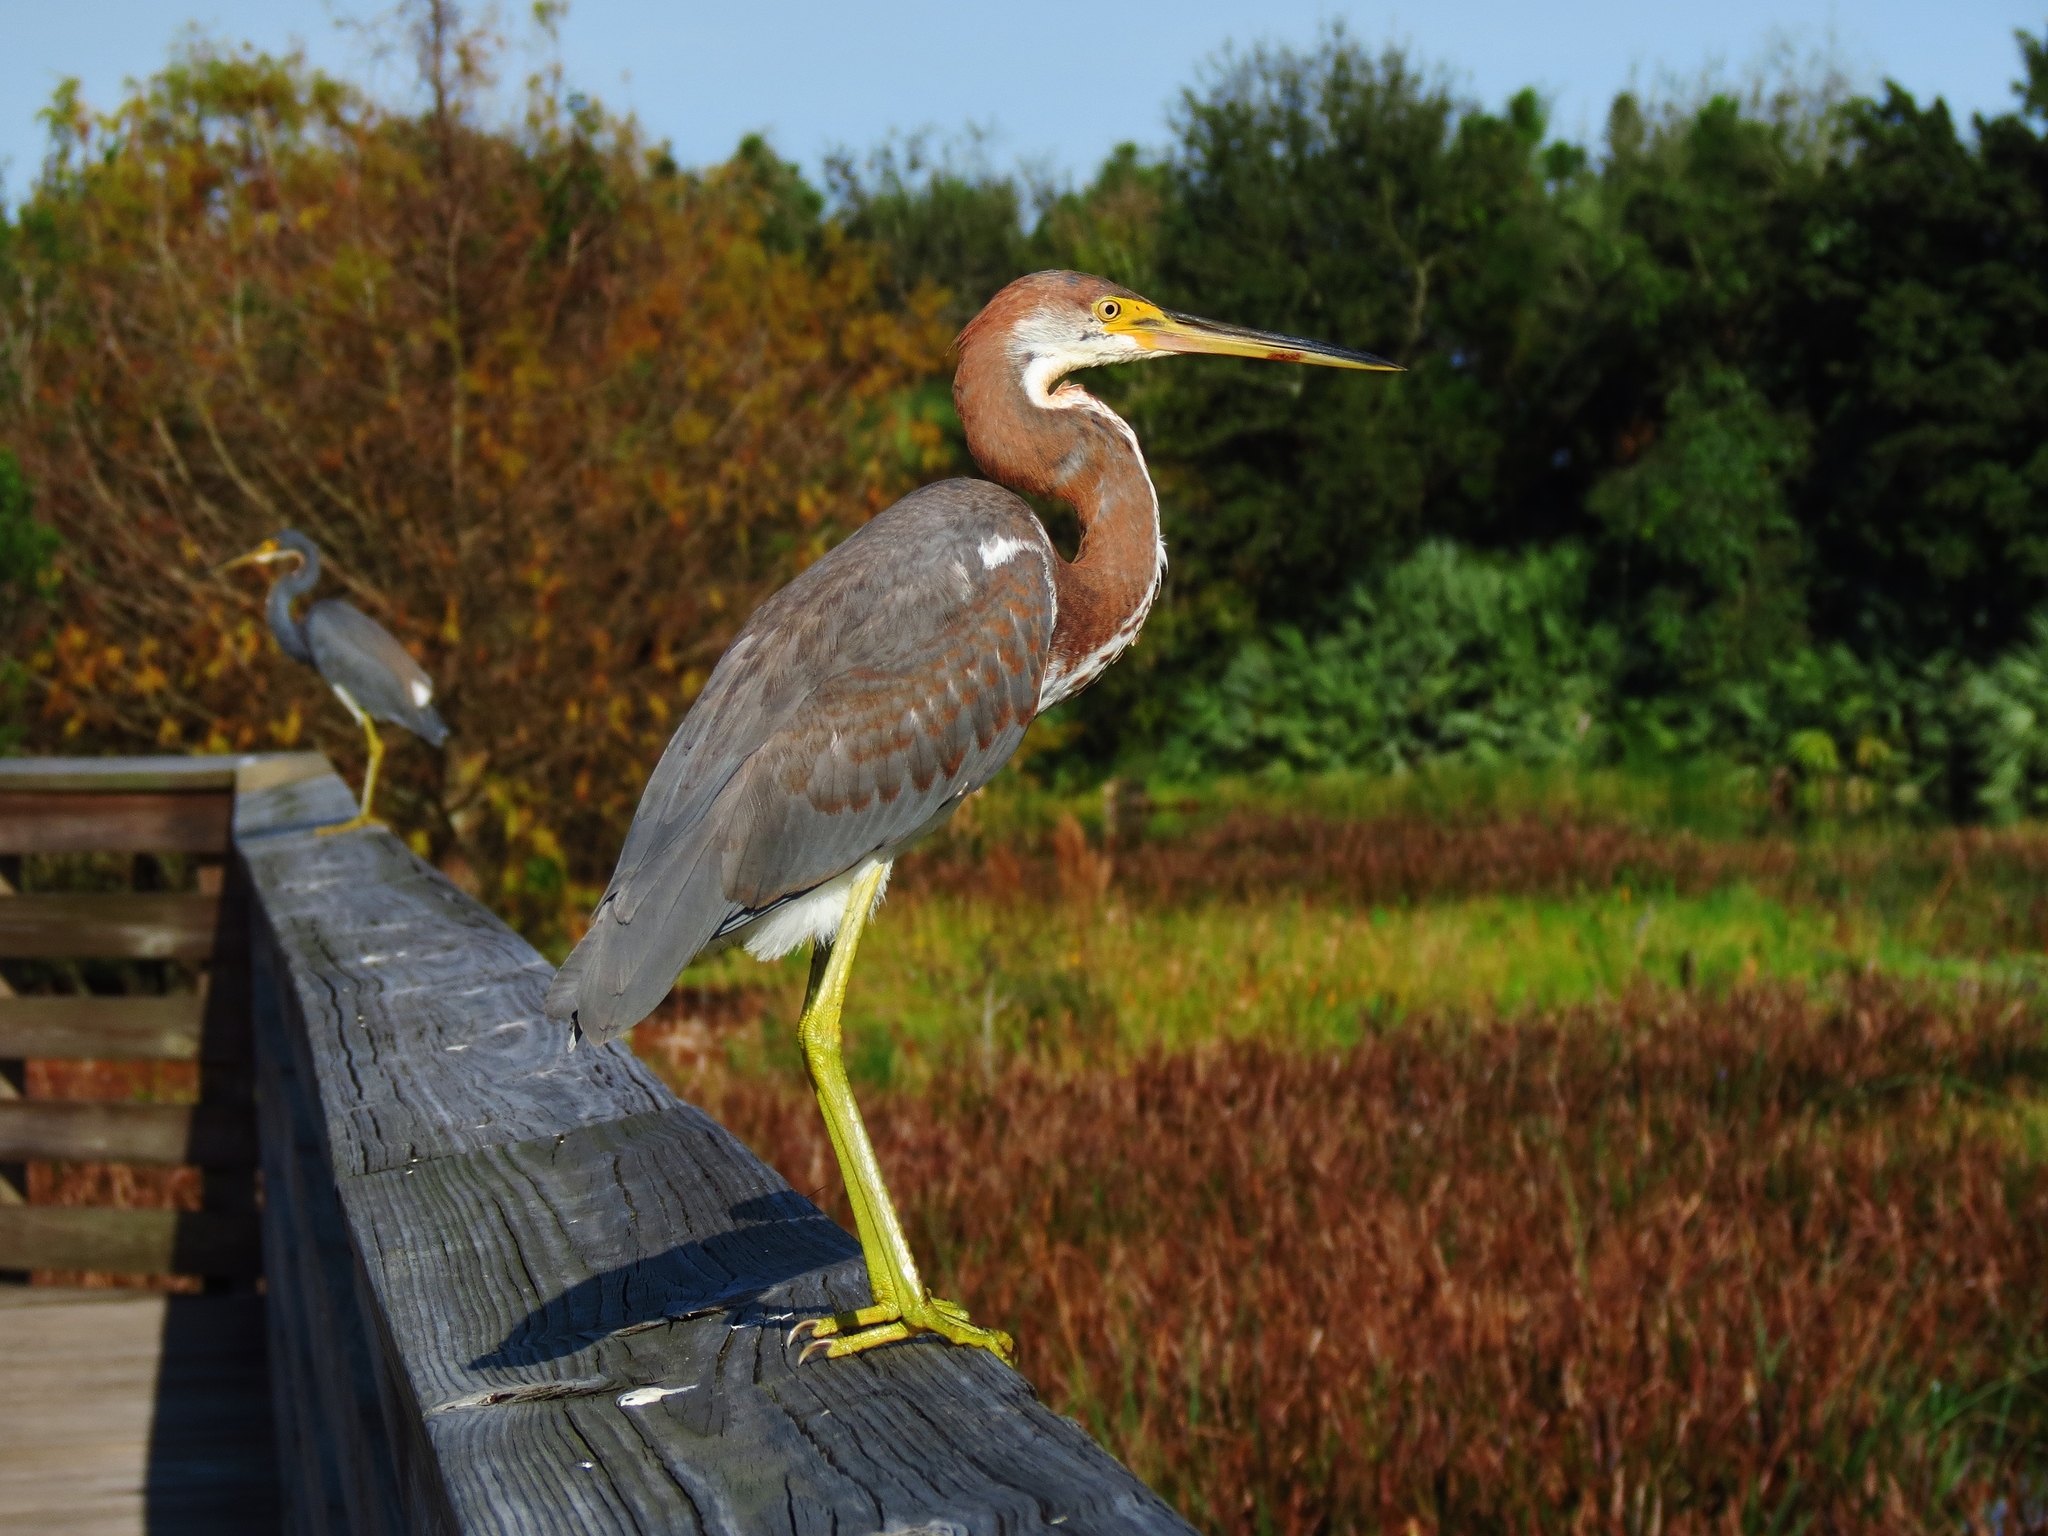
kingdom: Animalia
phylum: Chordata
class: Aves
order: Pelecaniformes
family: Ardeidae
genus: Egretta
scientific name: Egretta tricolor
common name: Tricolored heron
